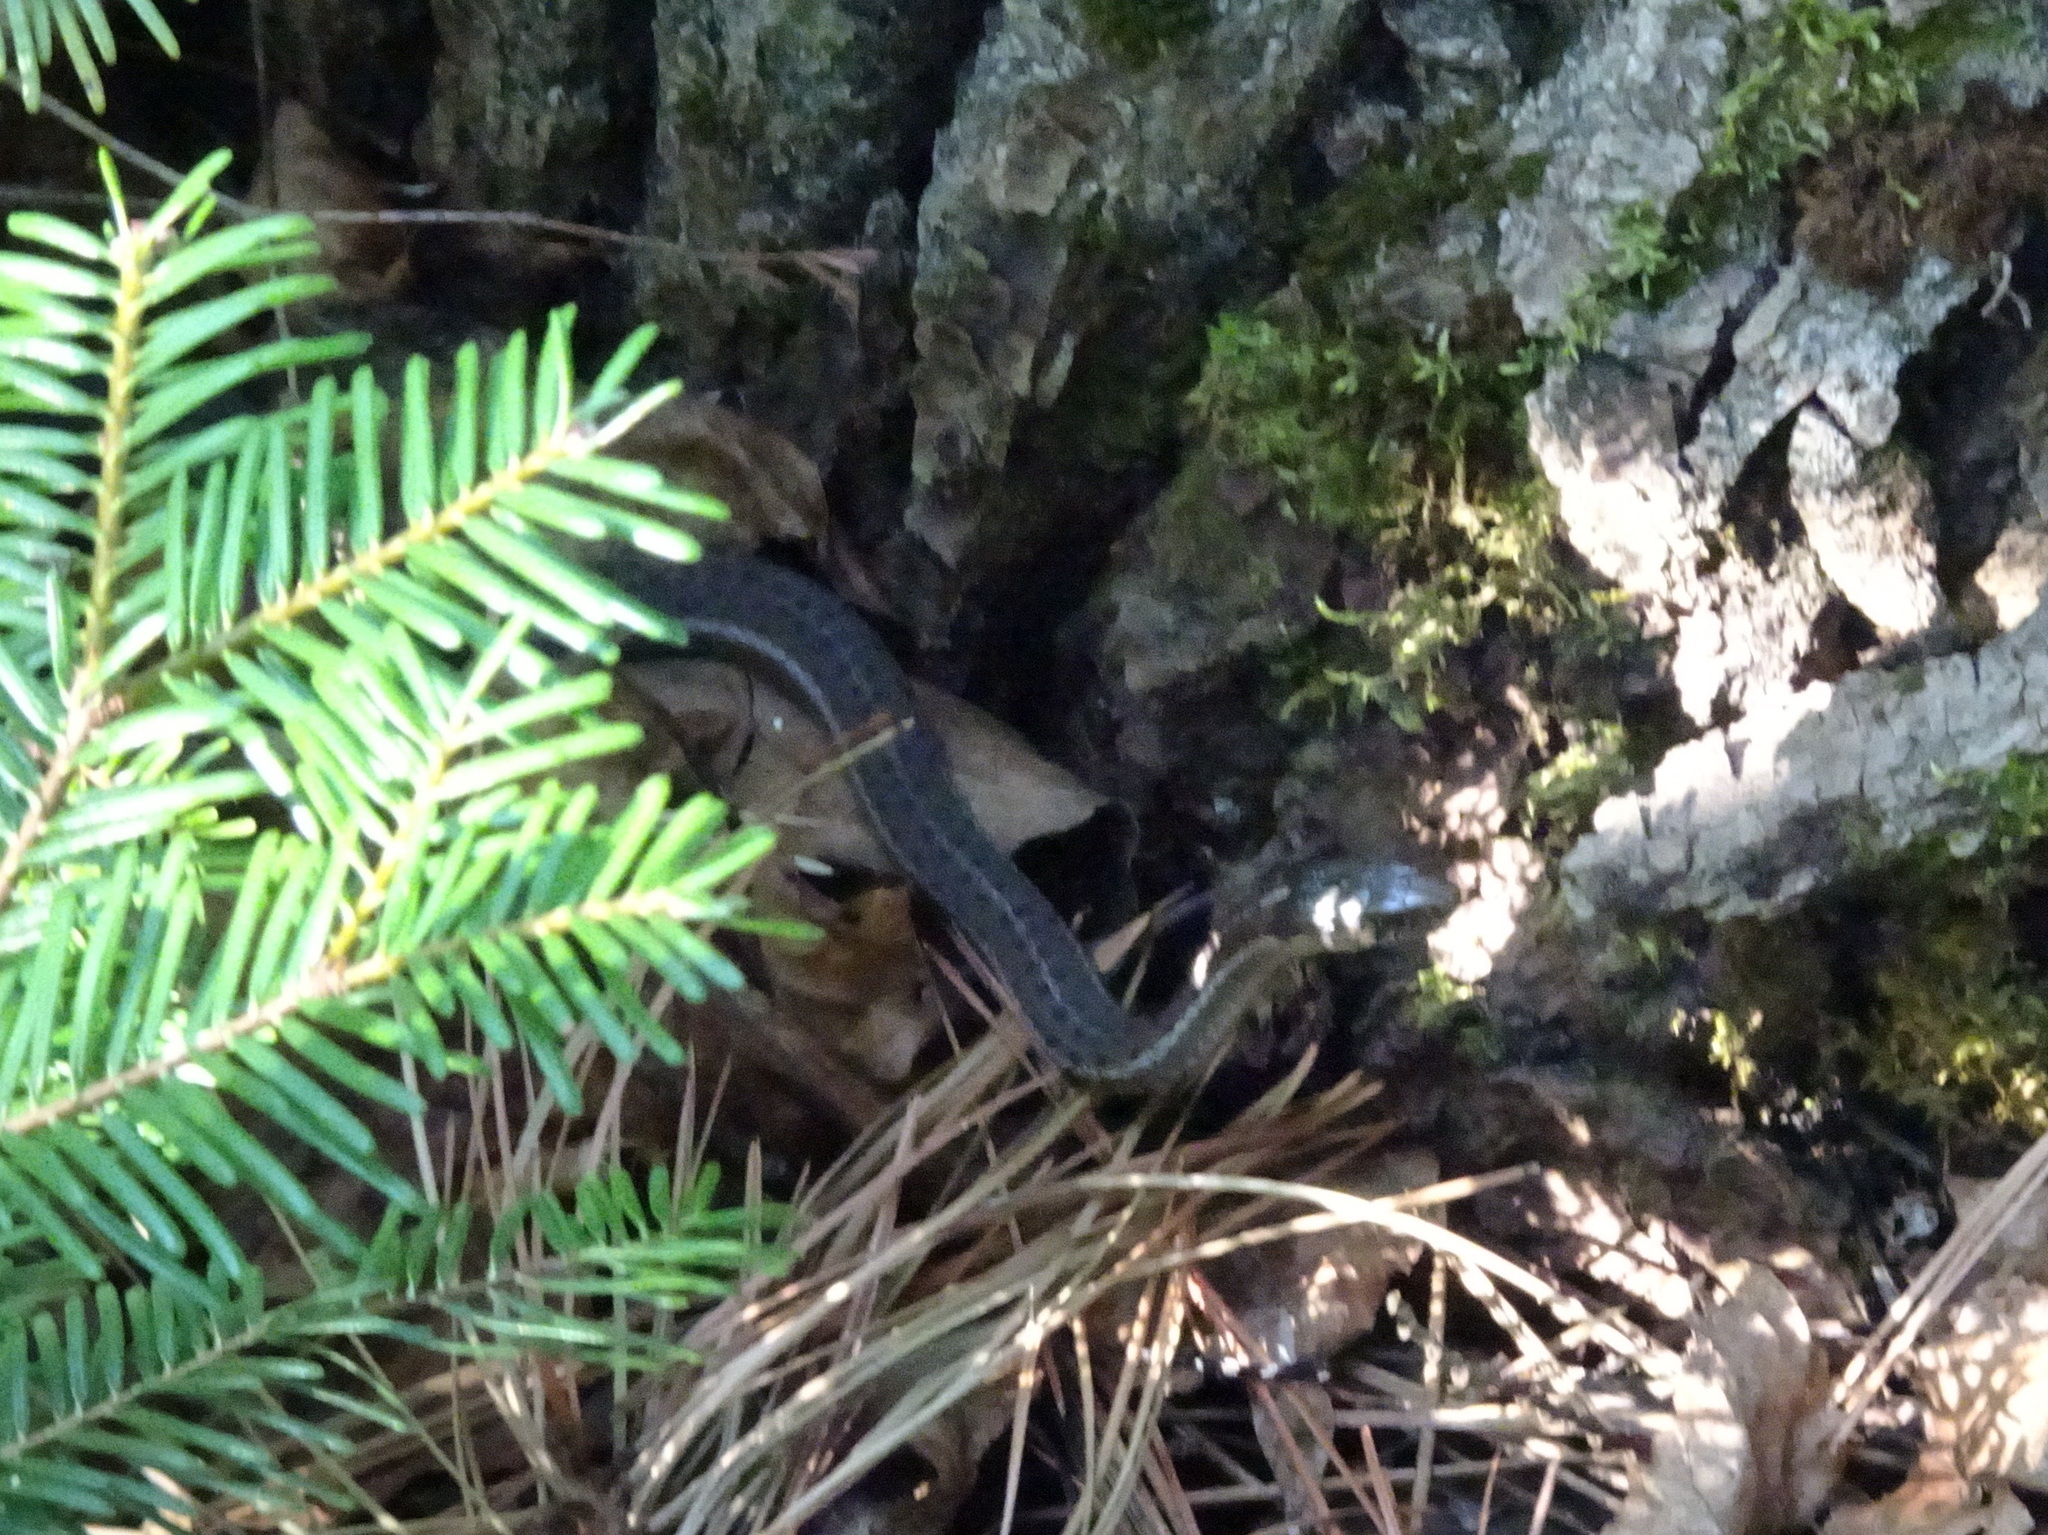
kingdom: Animalia
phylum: Chordata
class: Squamata
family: Colubridae
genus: Thamnophis
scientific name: Thamnophis elegans
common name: Western terrestrial garter snake
